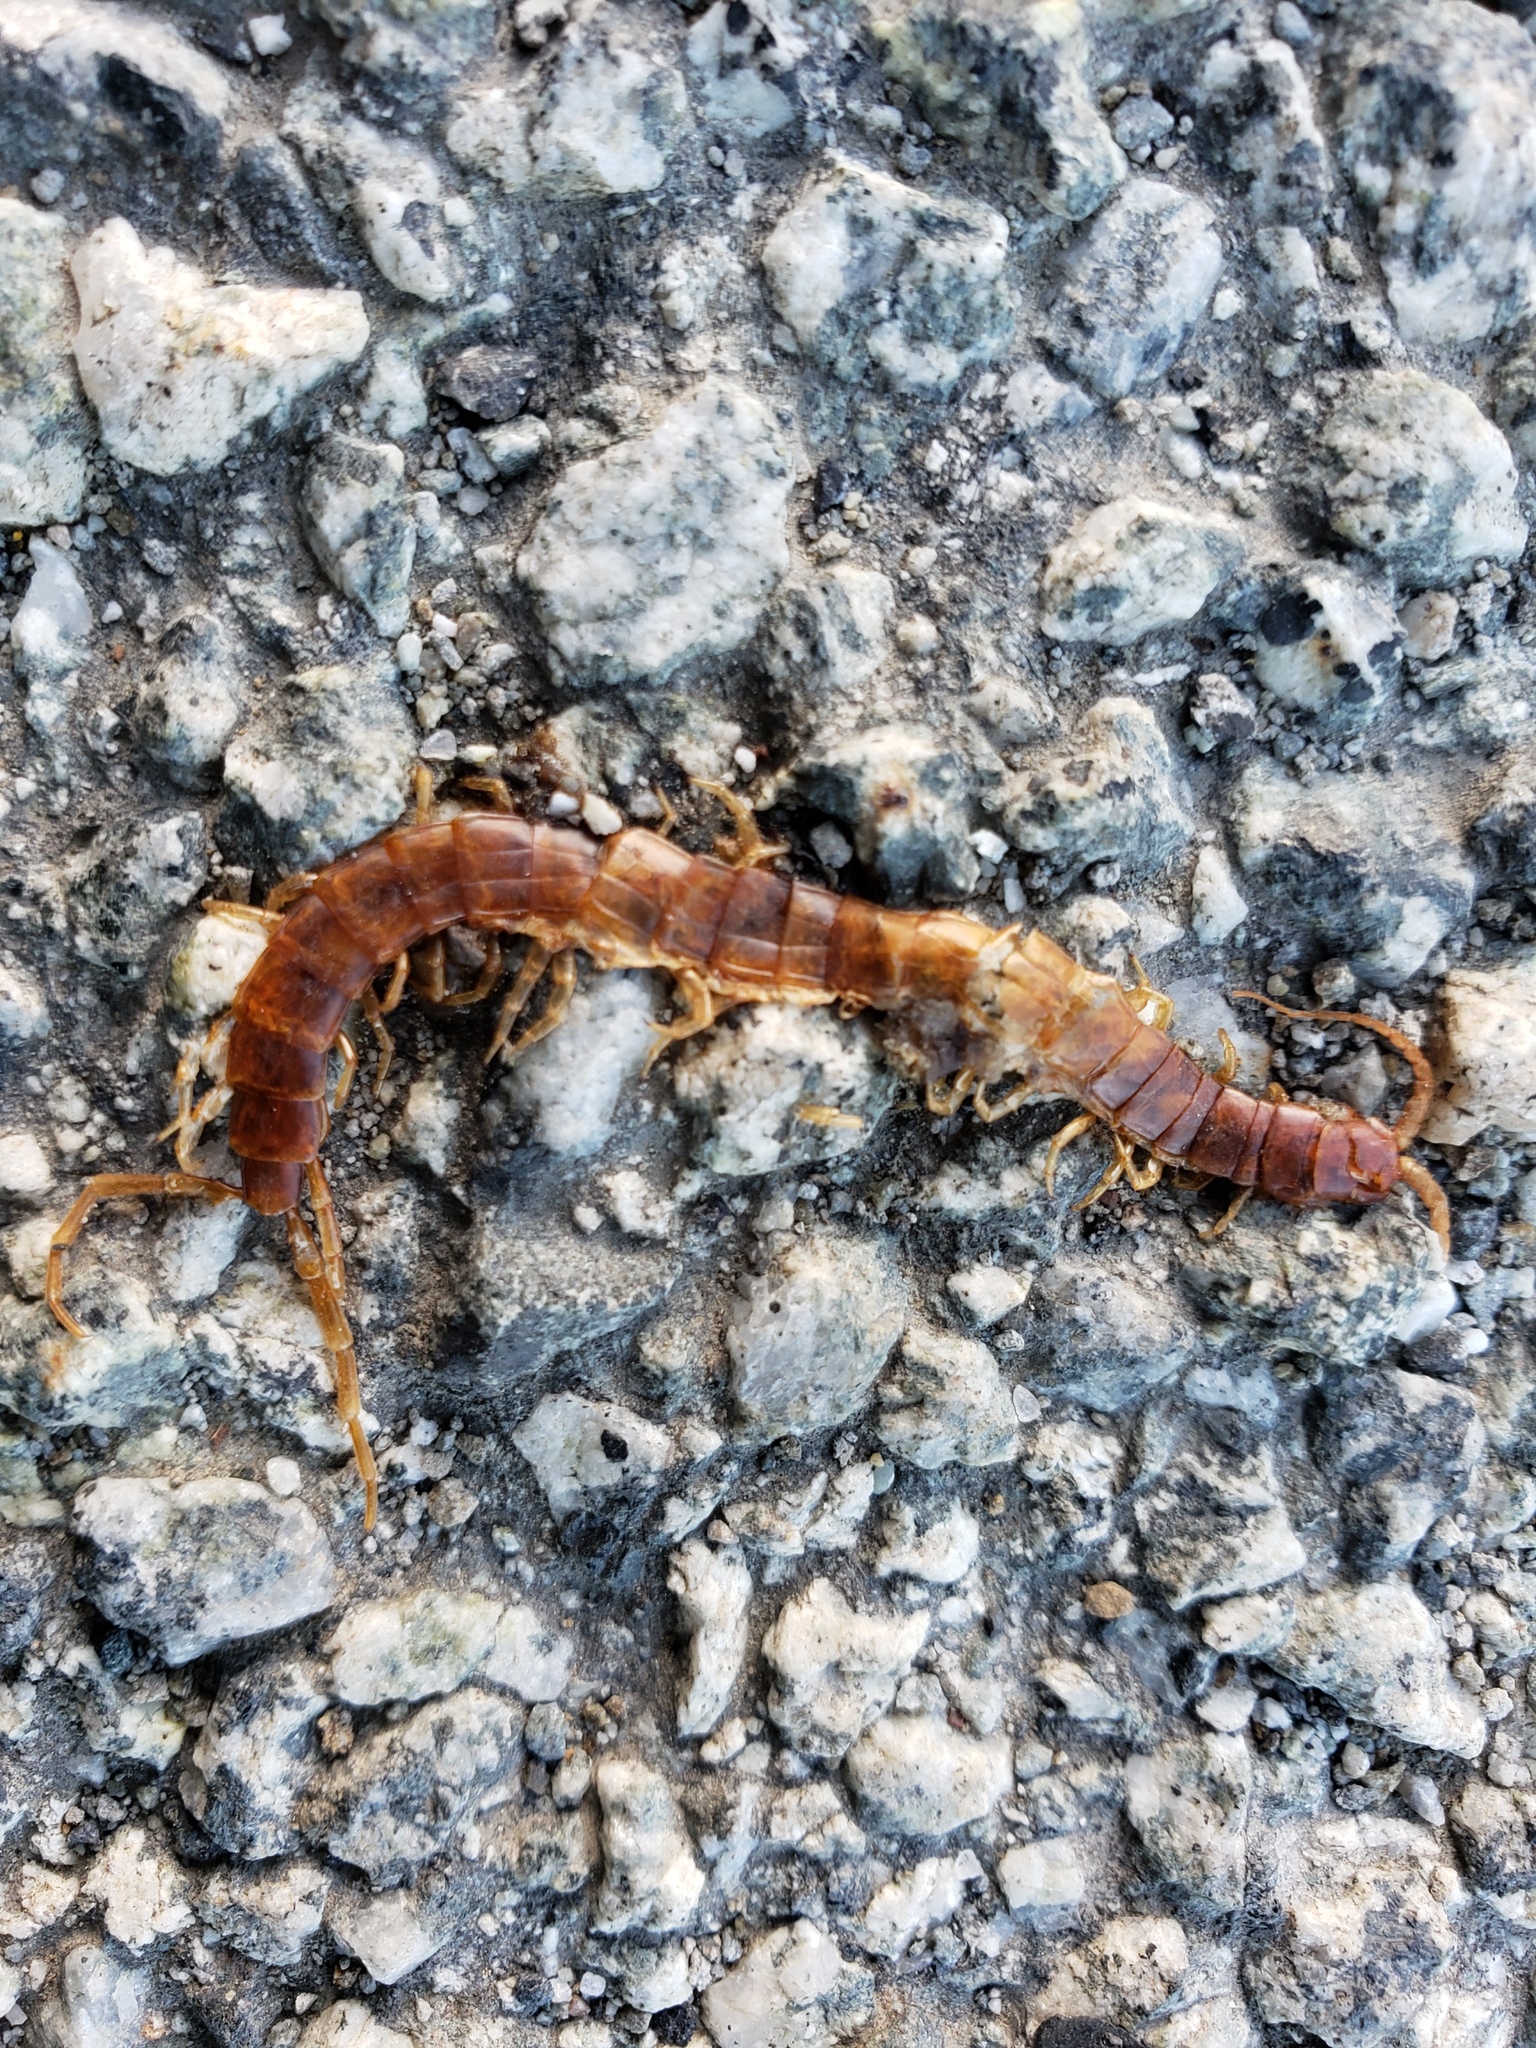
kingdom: Animalia
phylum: Arthropoda
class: Chilopoda
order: Scolopendromorpha
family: Scolopocryptopidae
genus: Scolopocryptops
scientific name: Scolopocryptops gracilis
